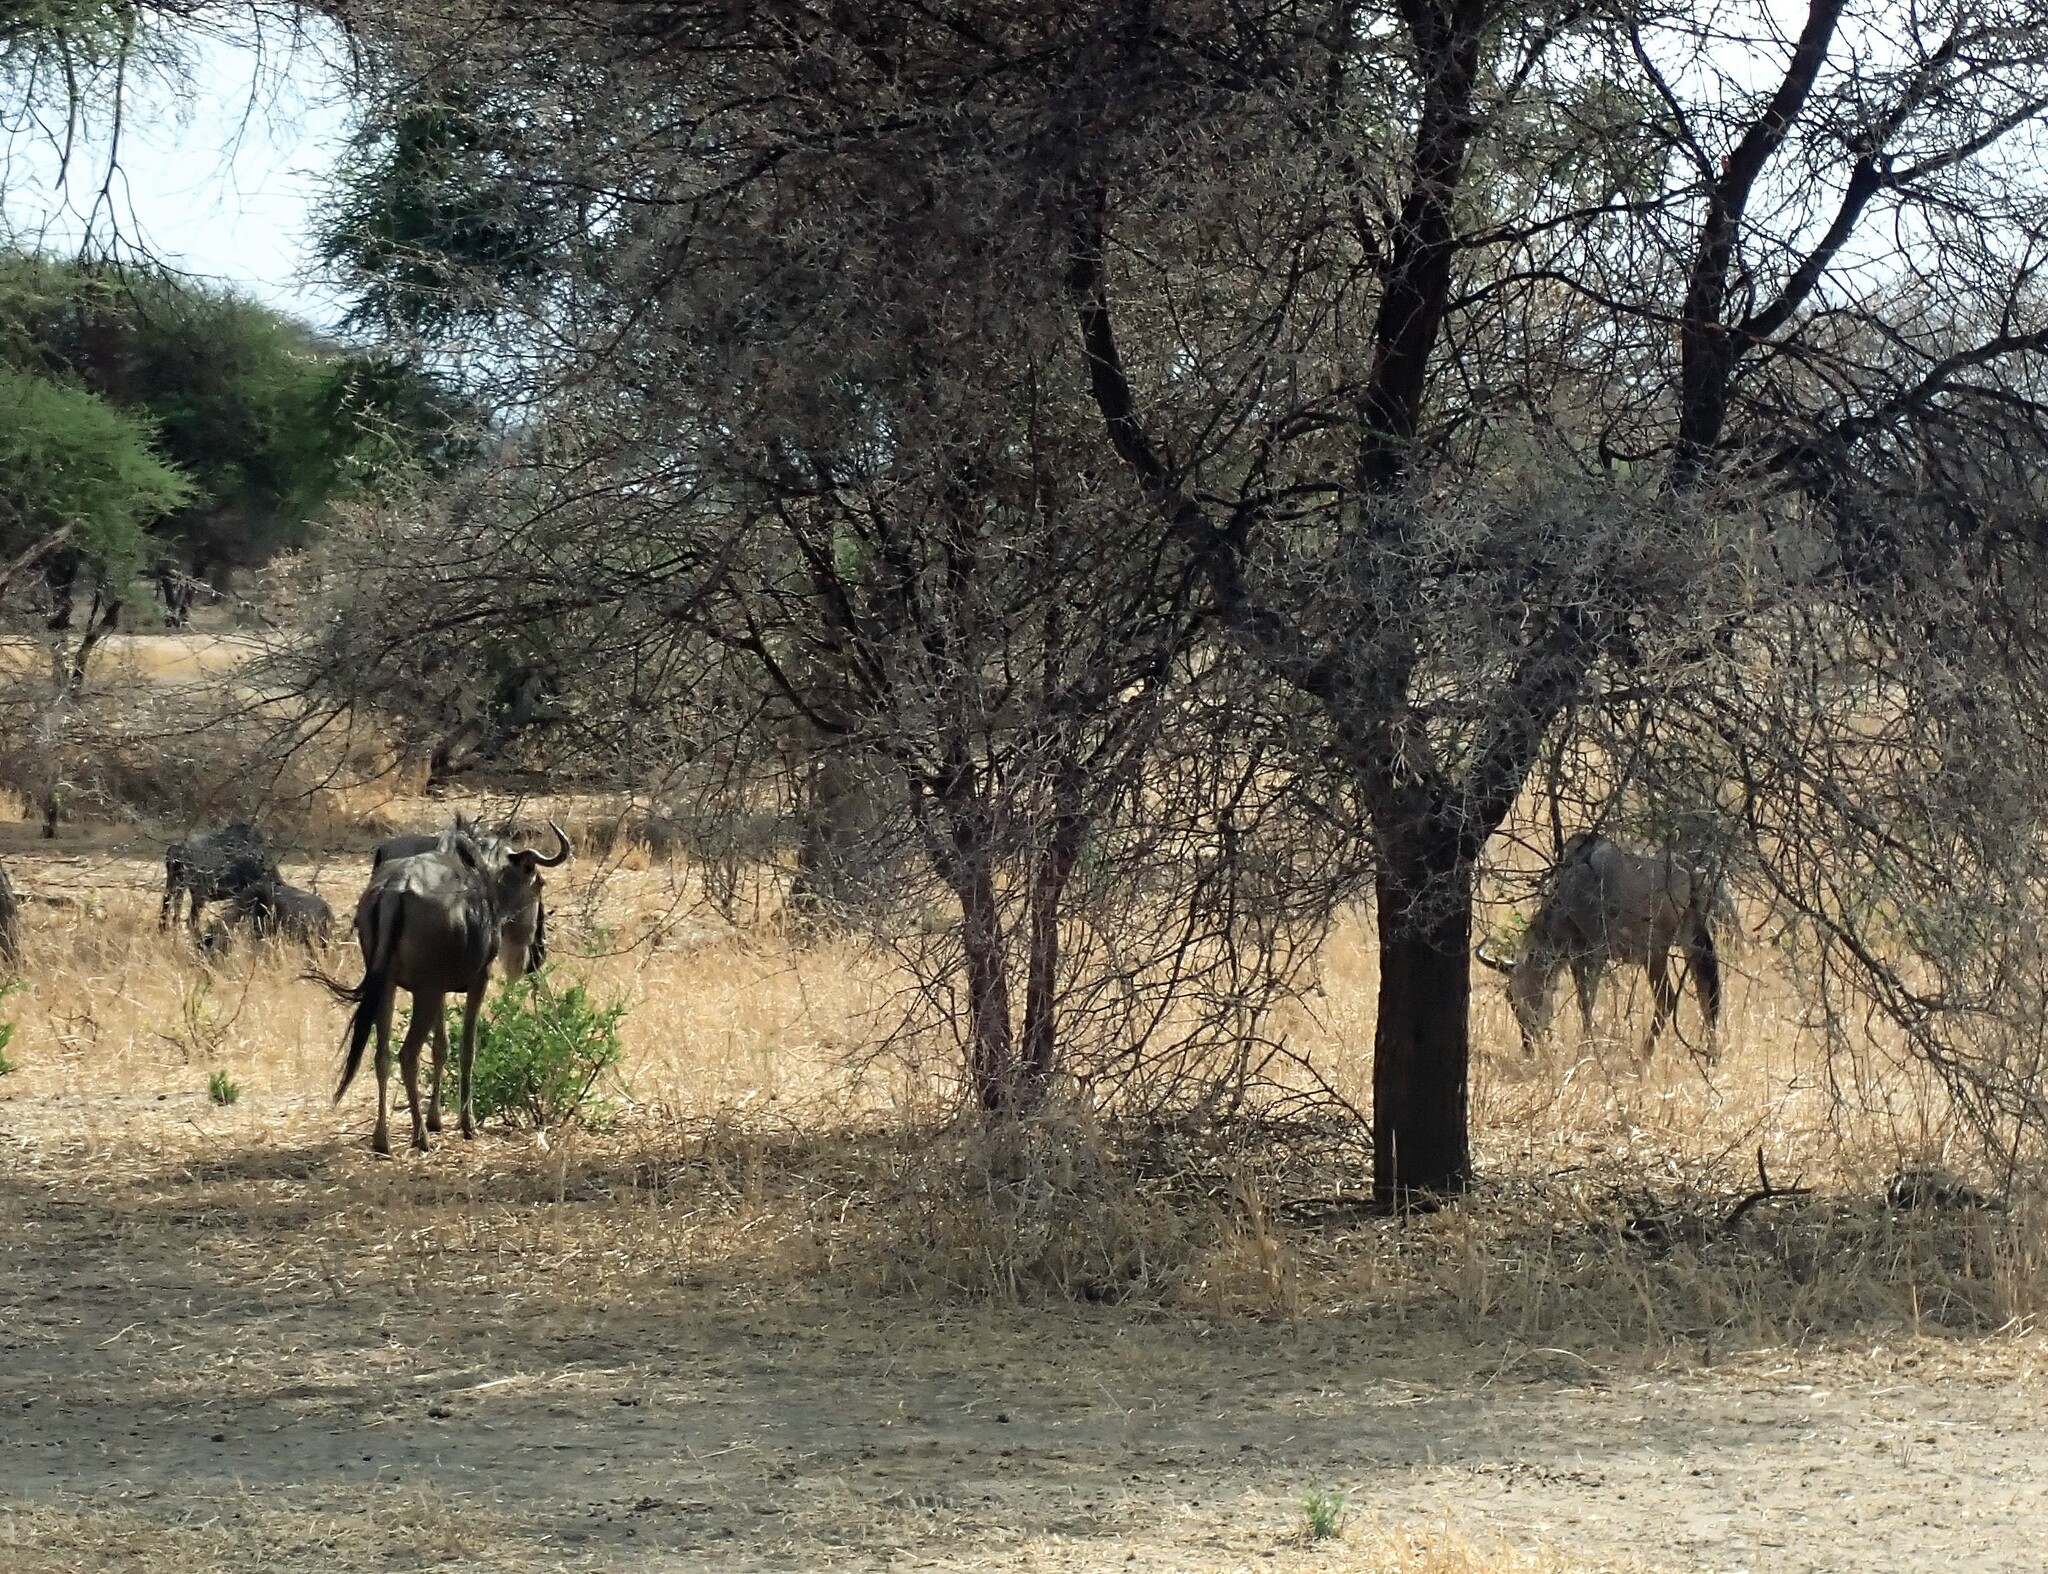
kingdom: Animalia
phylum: Chordata
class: Mammalia
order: Artiodactyla
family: Bovidae
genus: Connochaetes
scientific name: Connochaetes taurinus
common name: Blue wildebeest
